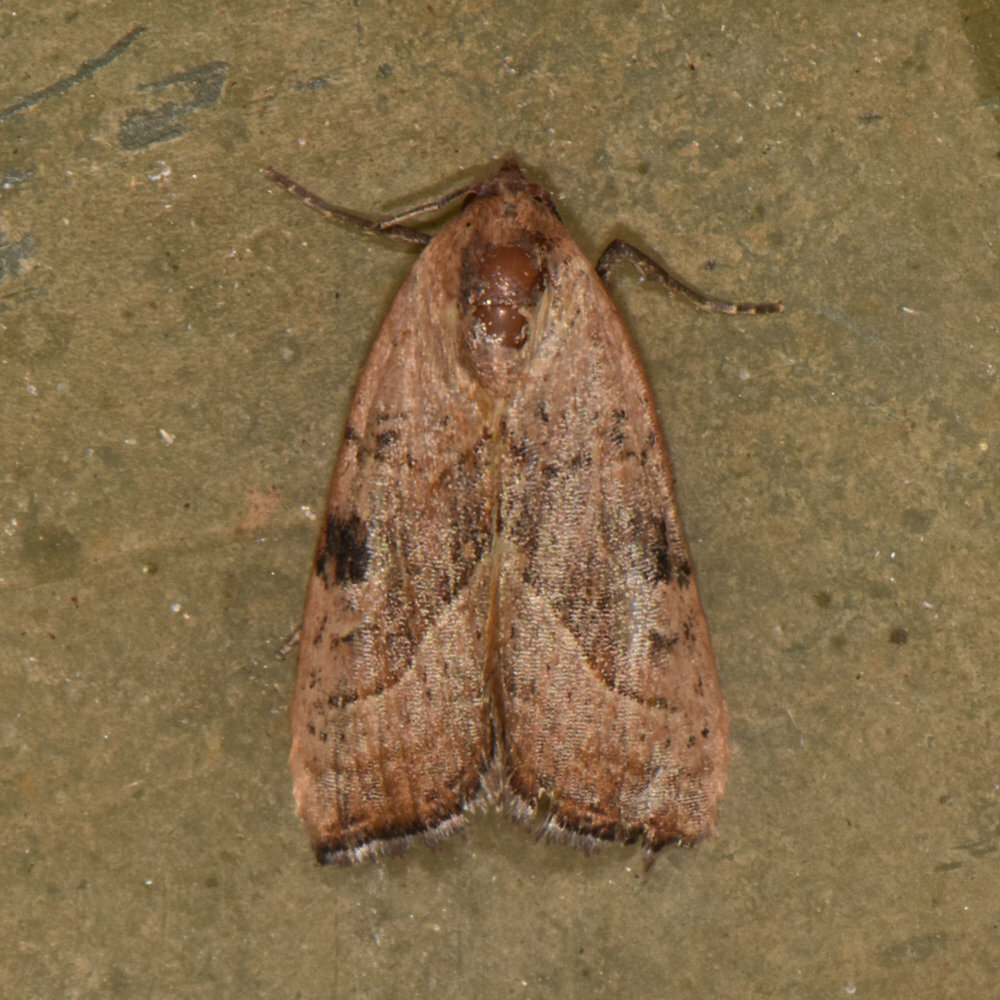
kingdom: Animalia
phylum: Arthropoda
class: Insecta
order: Lepidoptera
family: Noctuidae
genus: Galgula
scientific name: Galgula partita
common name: Wedgeling
